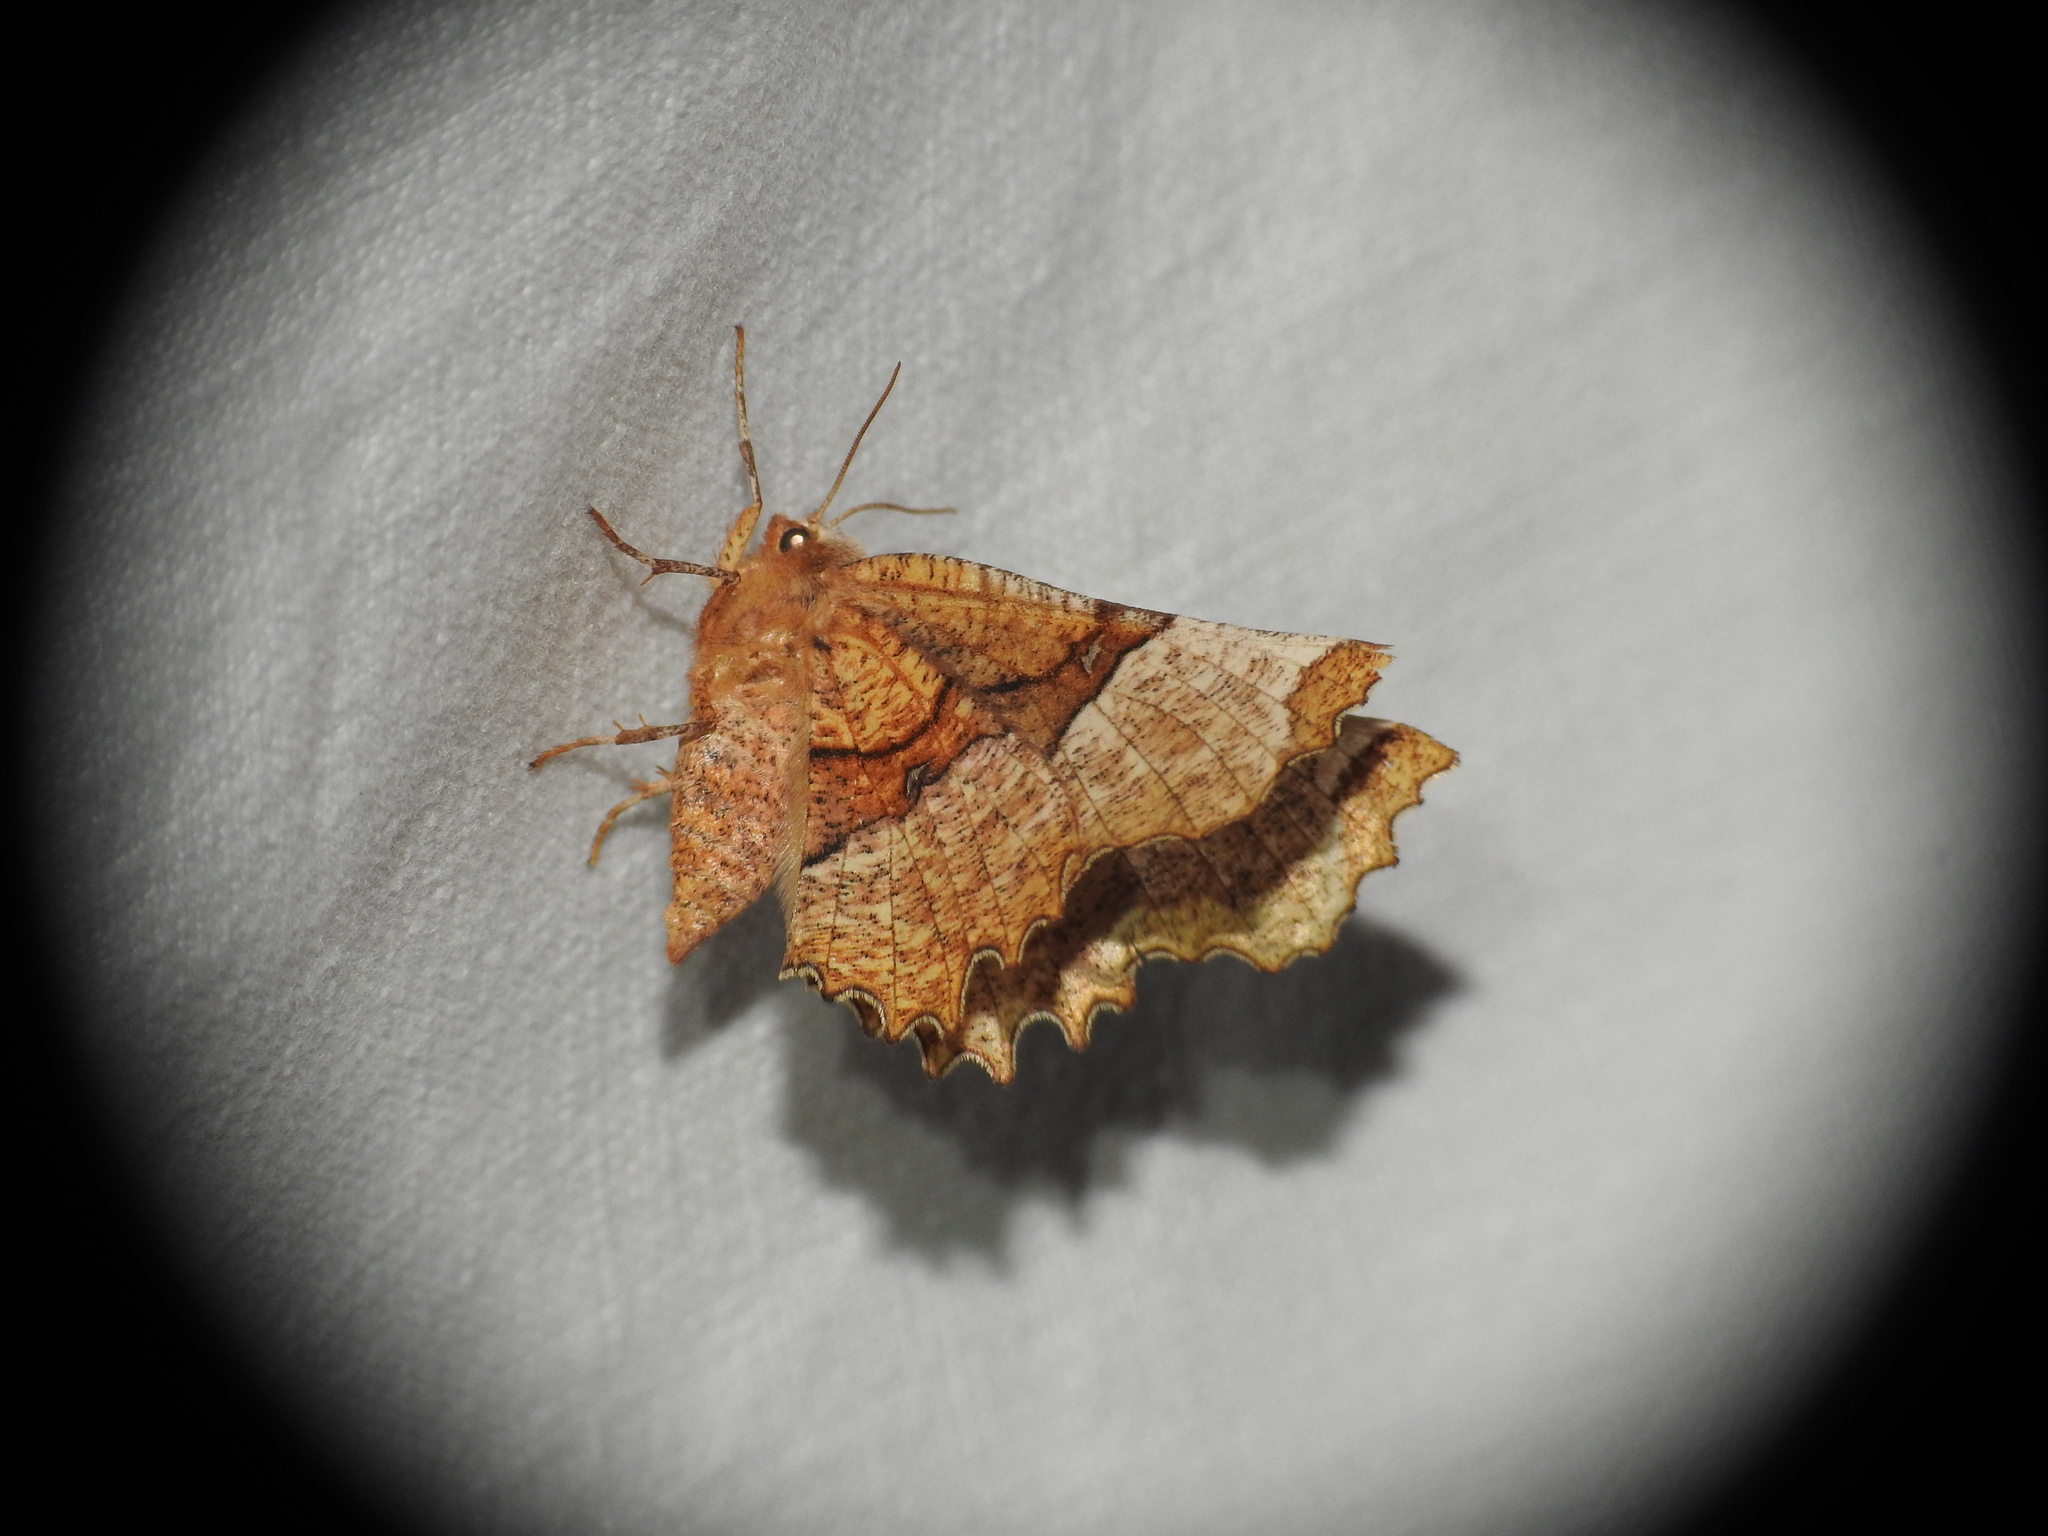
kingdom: Animalia
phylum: Arthropoda
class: Insecta
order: Lepidoptera
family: Geometridae
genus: Selenia
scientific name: Selenia lunularia
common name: Lunar thorn
